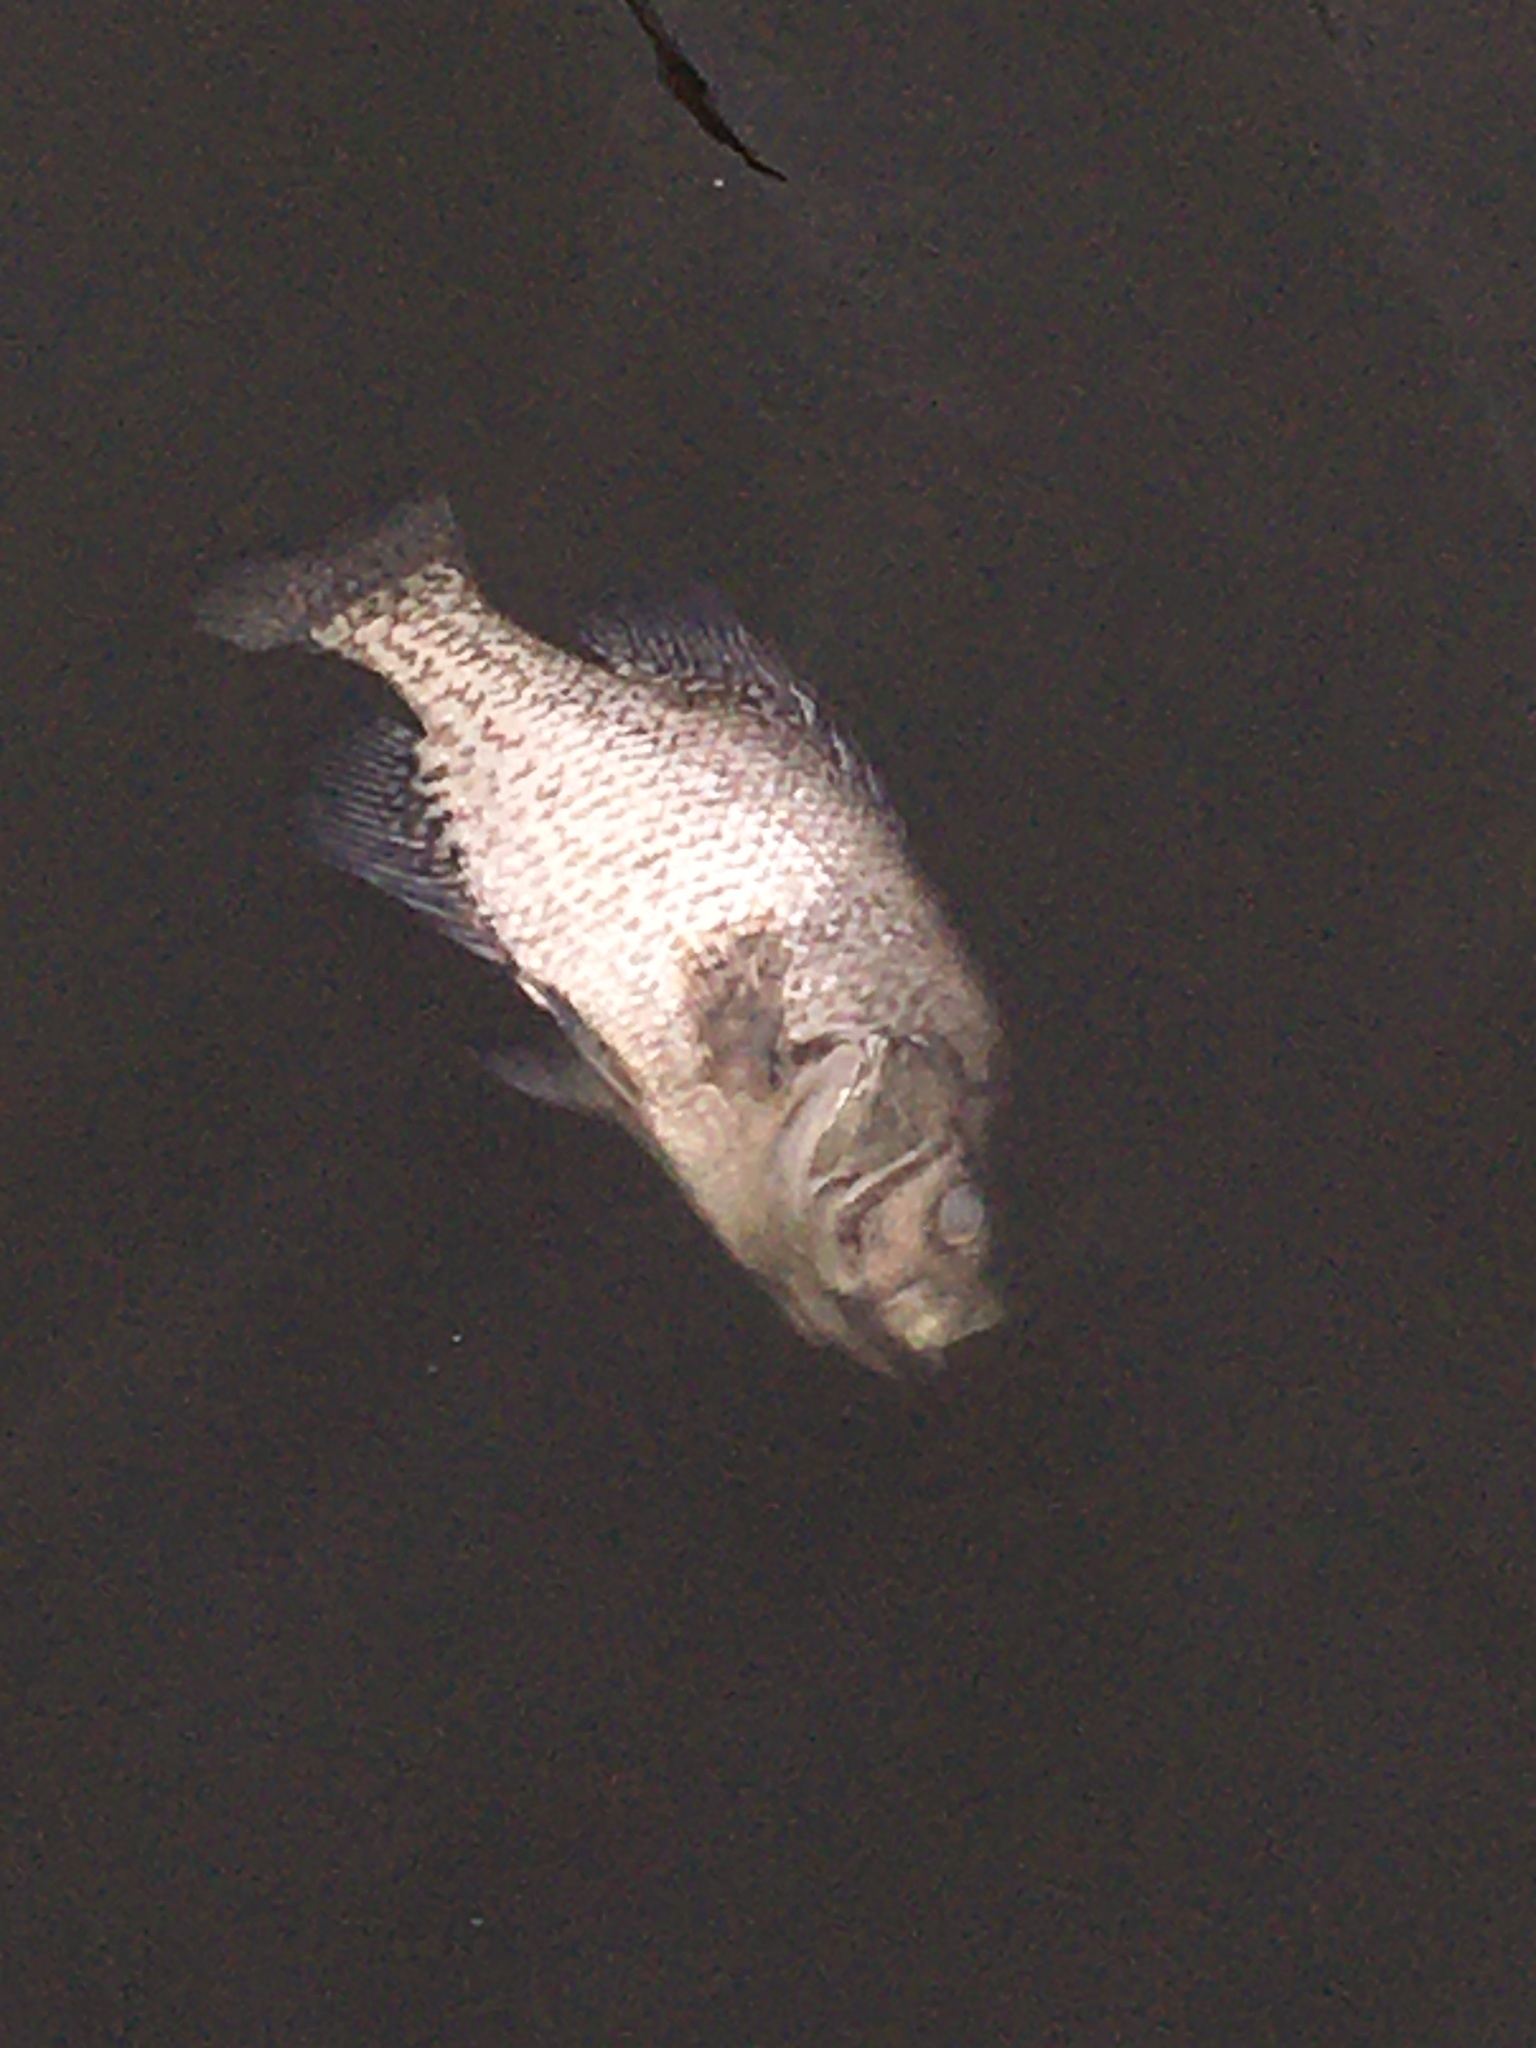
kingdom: Animalia
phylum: Chordata
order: Perciformes
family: Centrarchidae
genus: Pomoxis
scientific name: Pomoxis nigromaculatus
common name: Black crappie
